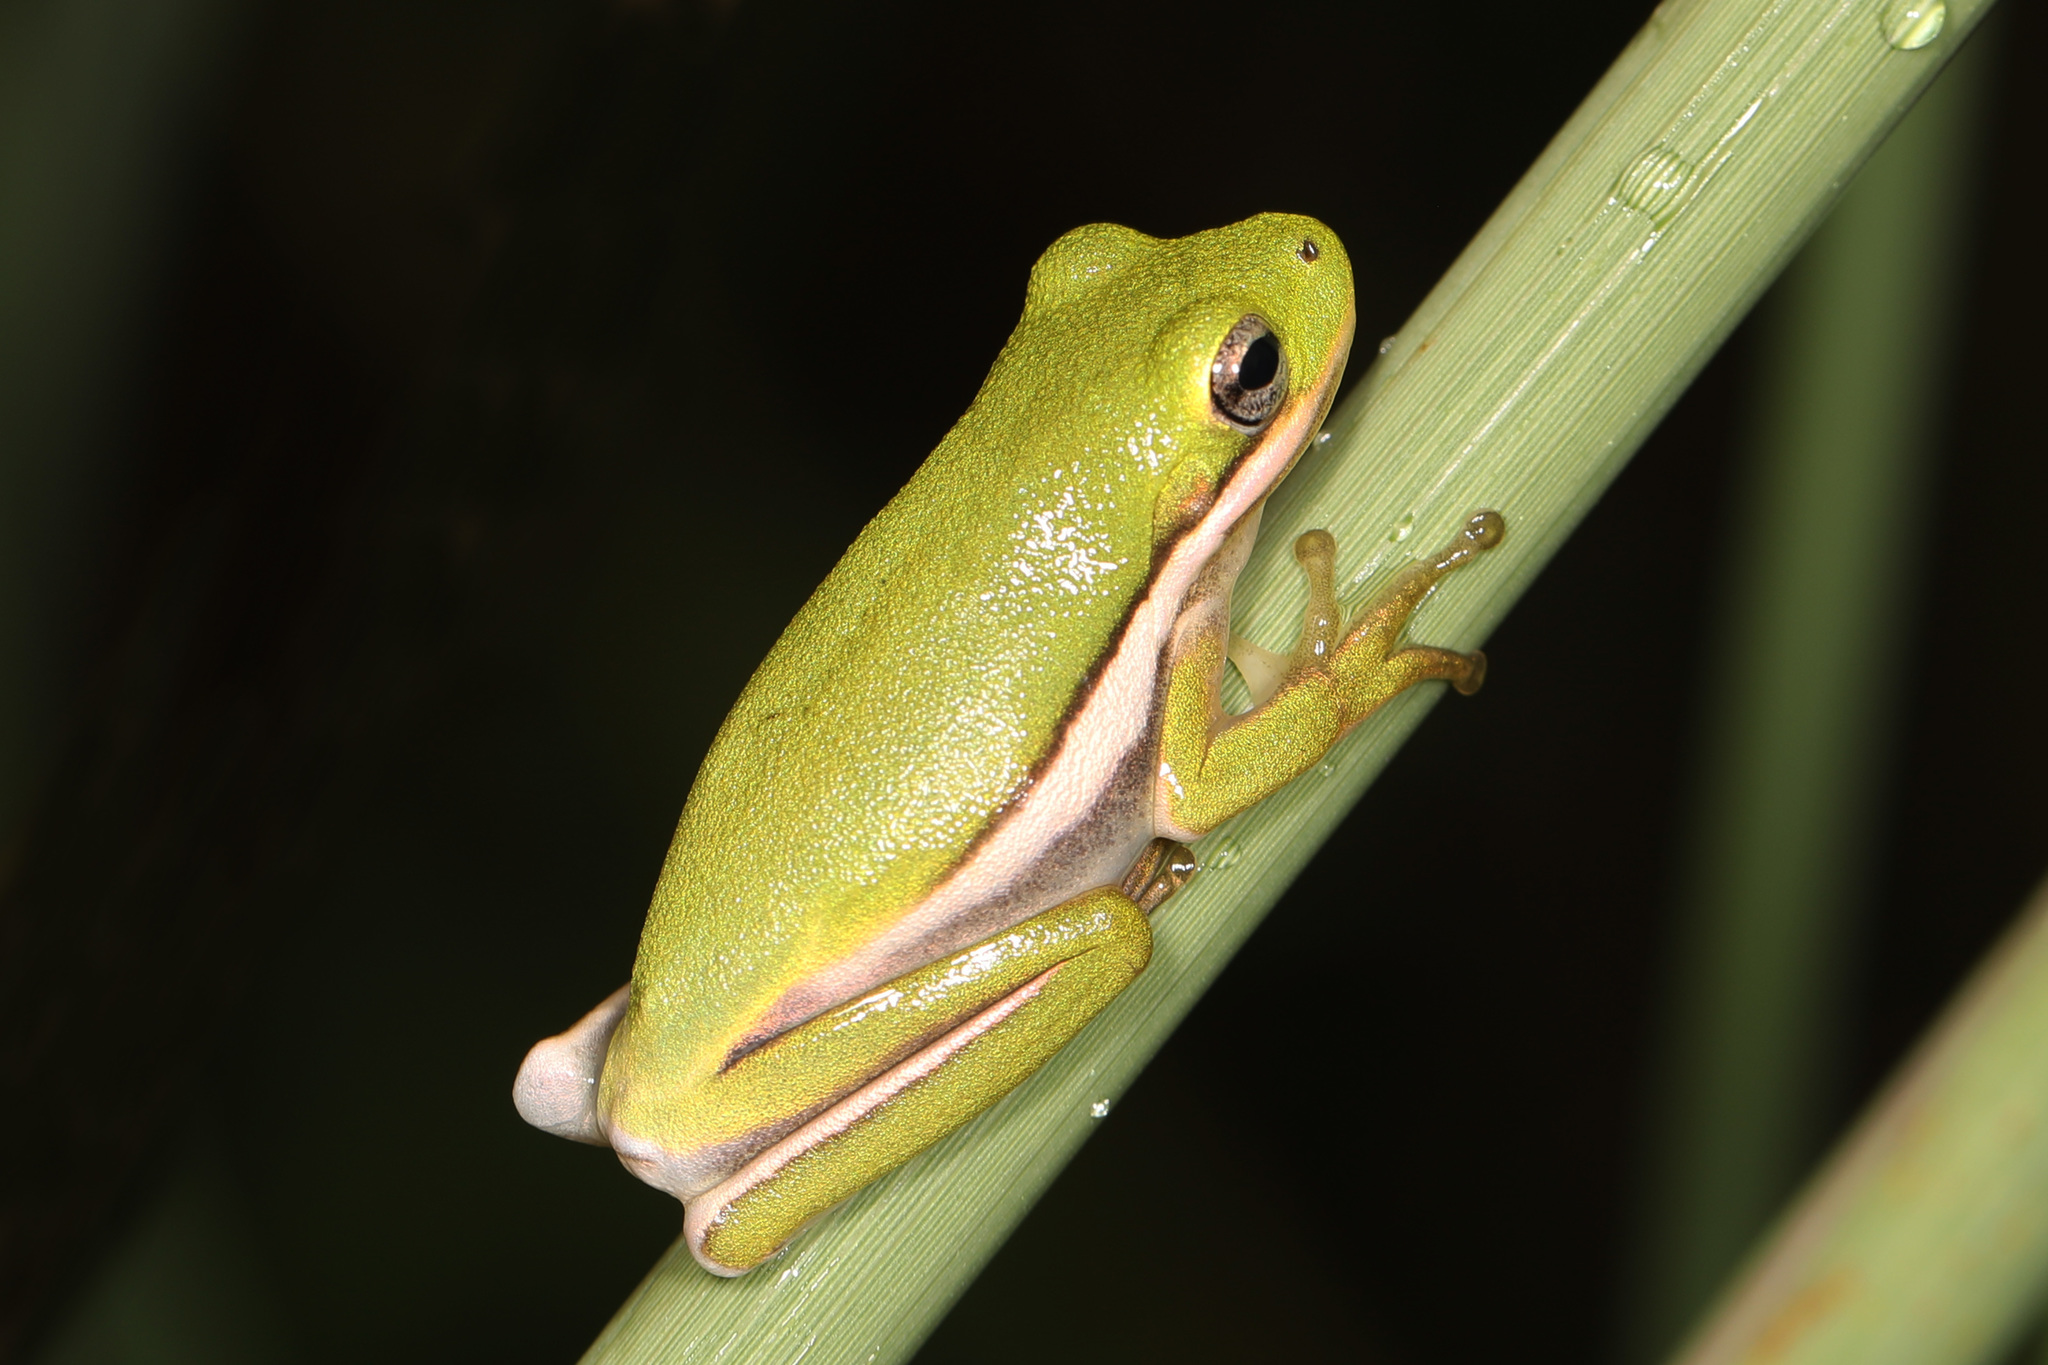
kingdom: Animalia
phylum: Chordata
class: Amphibia
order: Anura
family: Hylidae
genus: Dryophytes
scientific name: Dryophytes cinereus
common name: Green treefrog
